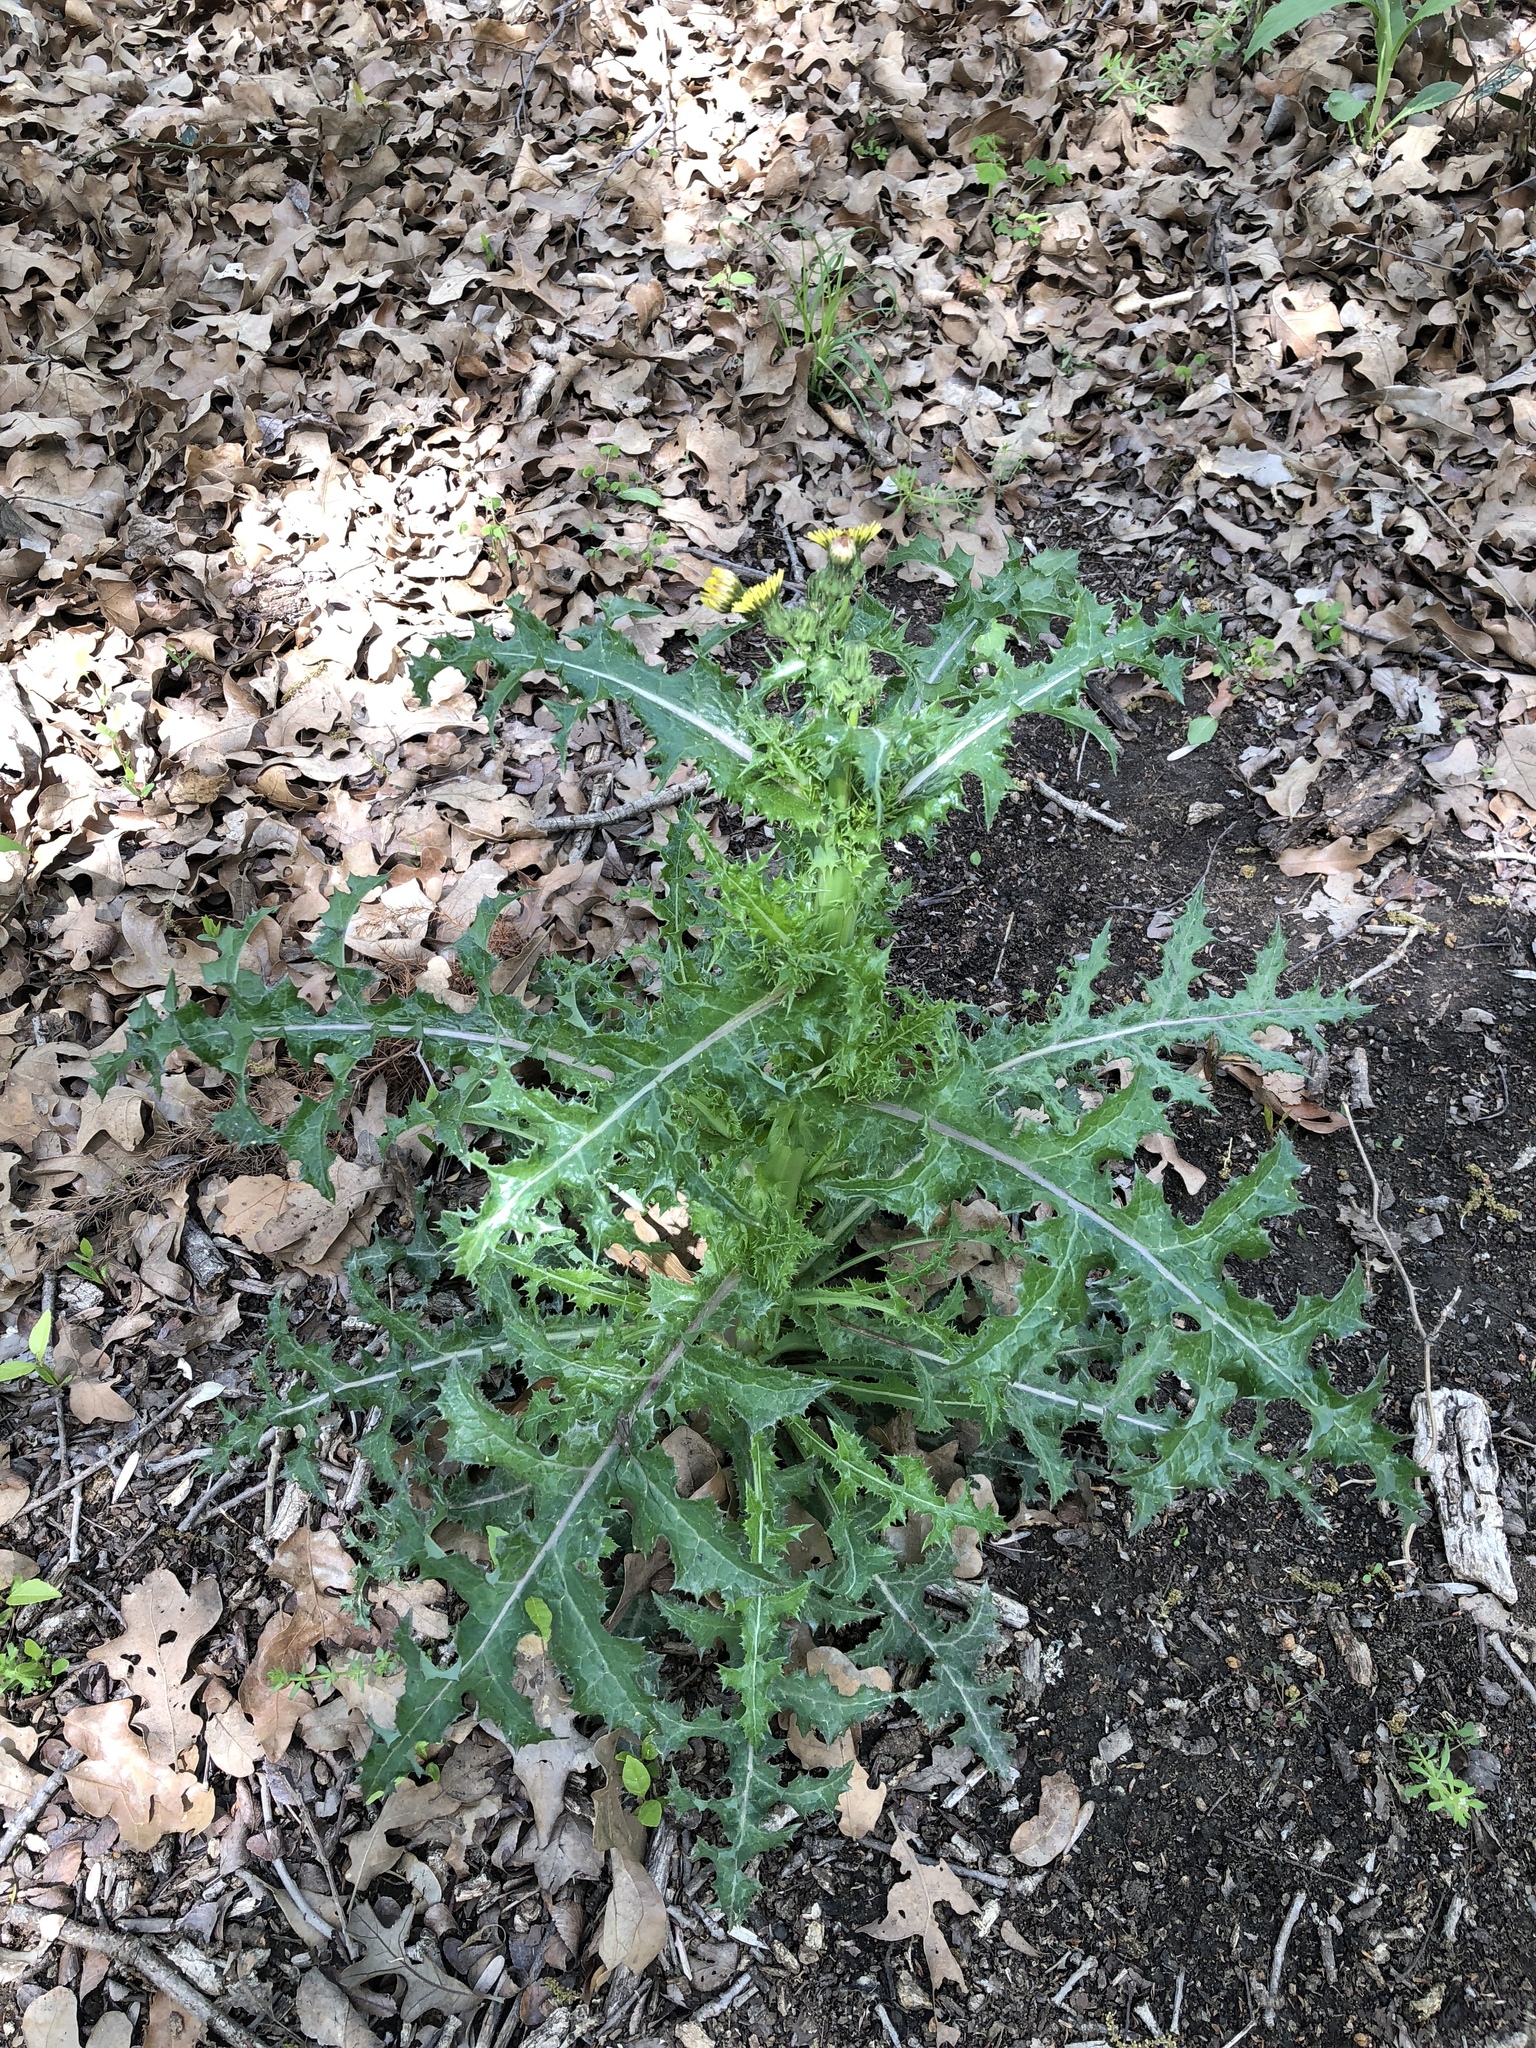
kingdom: Plantae
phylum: Tracheophyta
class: Magnoliopsida
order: Asterales
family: Asteraceae
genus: Sonchus
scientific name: Sonchus asper
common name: Prickly sow-thistle
